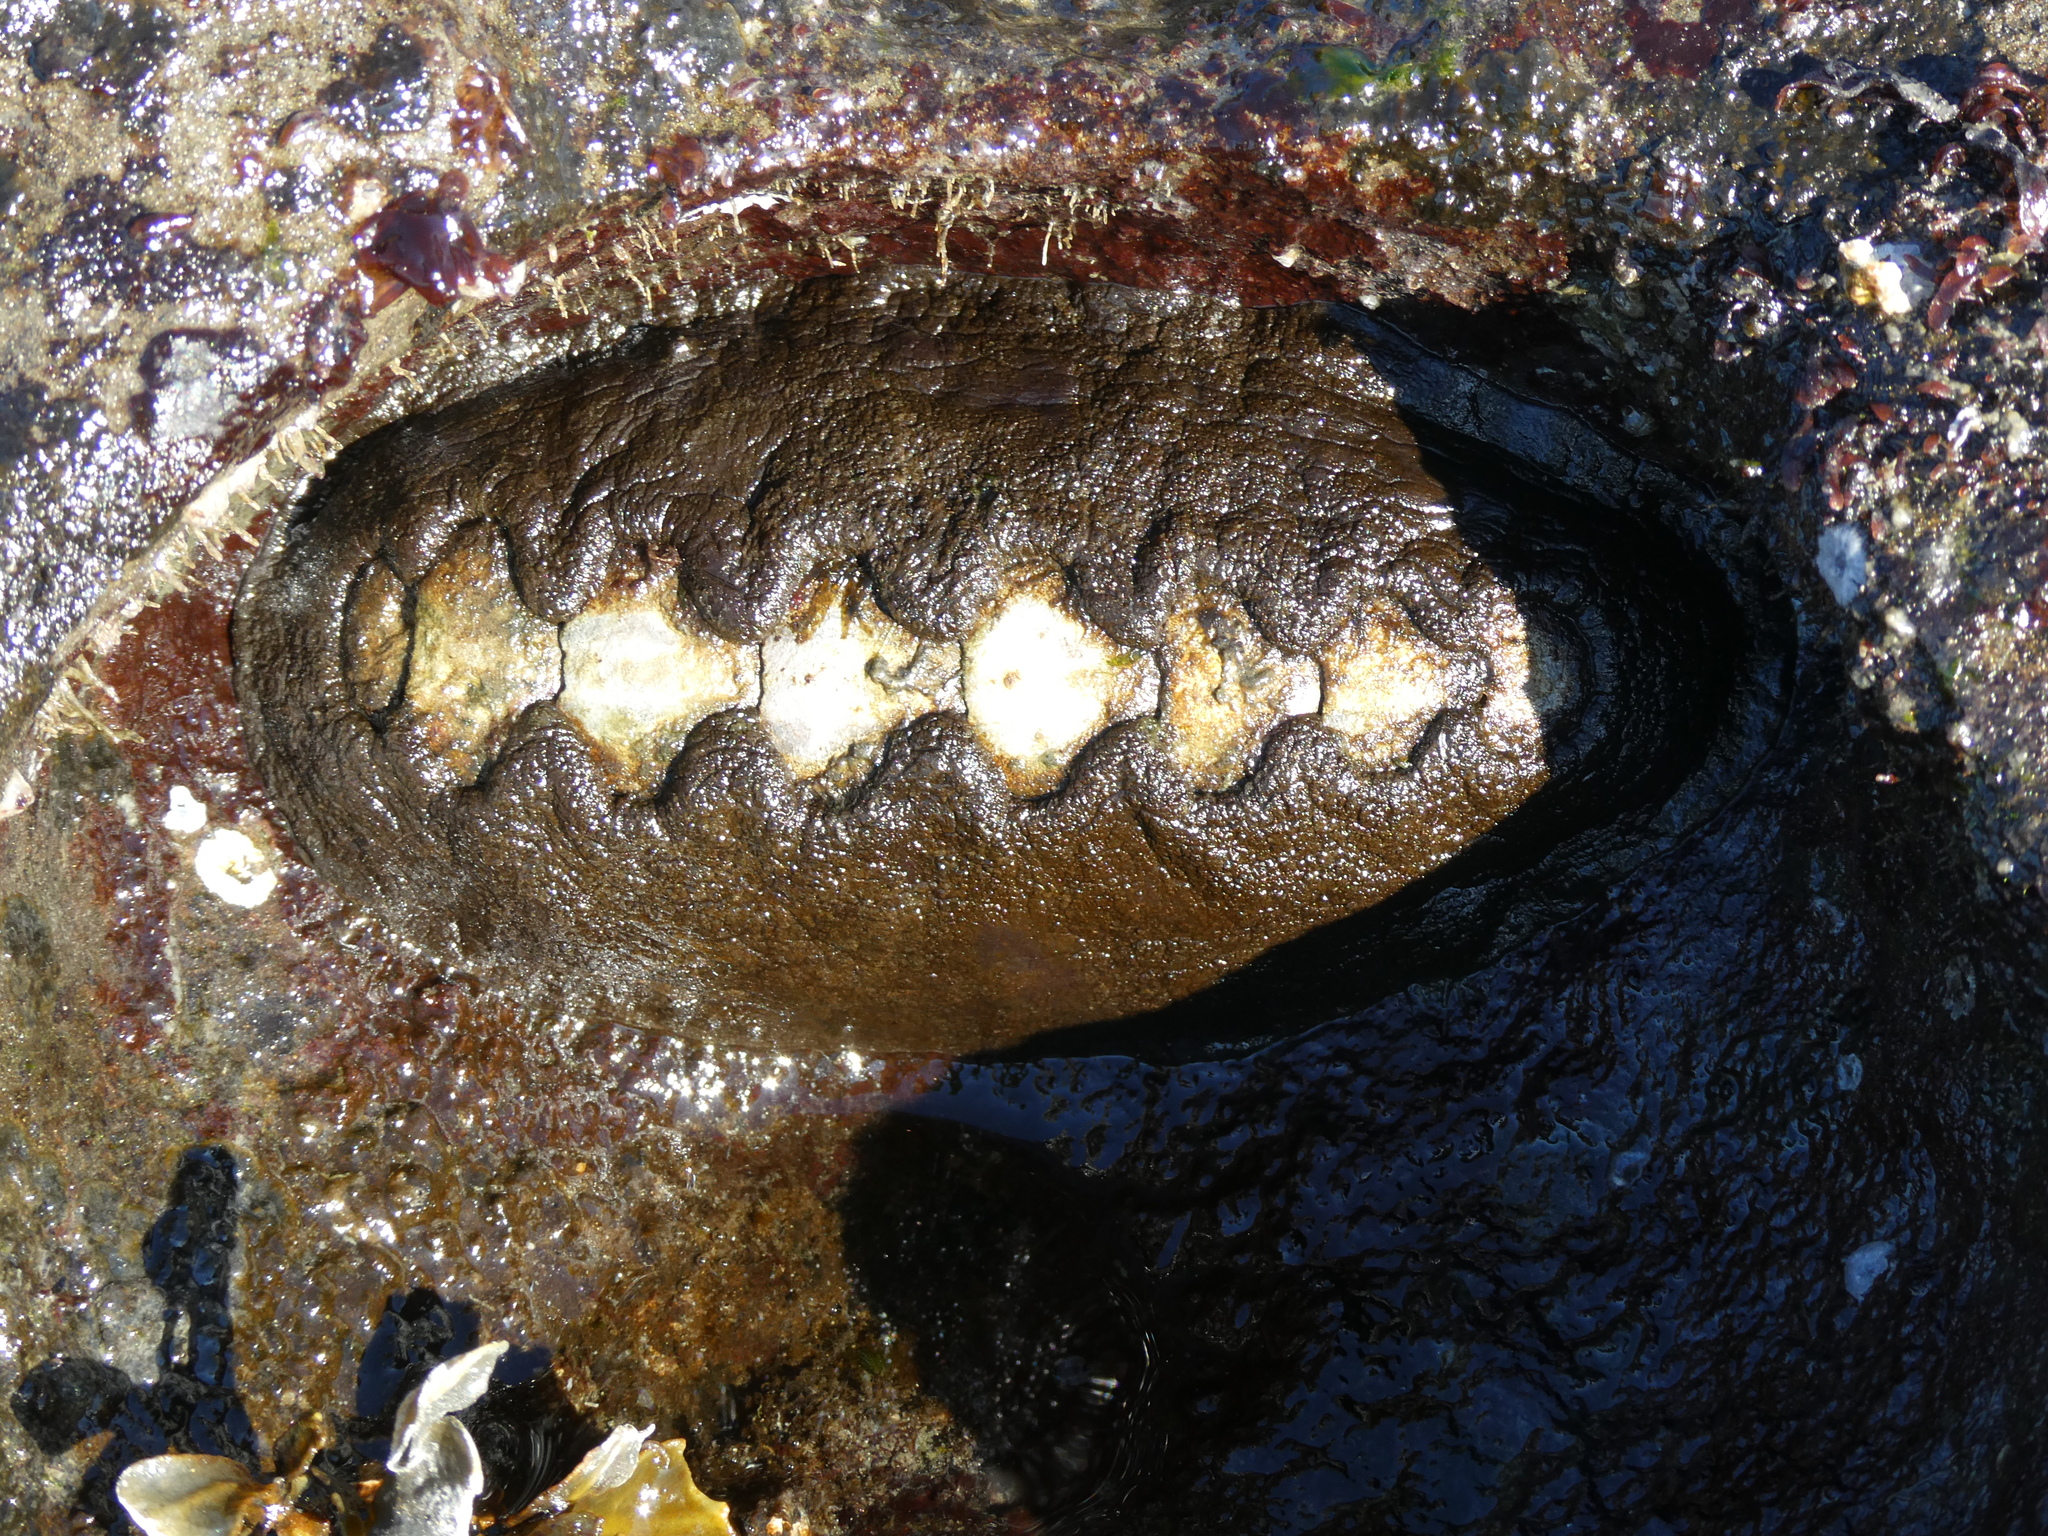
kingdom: Animalia
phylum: Mollusca
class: Polyplacophora
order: Chitonida
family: Mopaliidae
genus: Katharina
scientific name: Katharina tunicata
